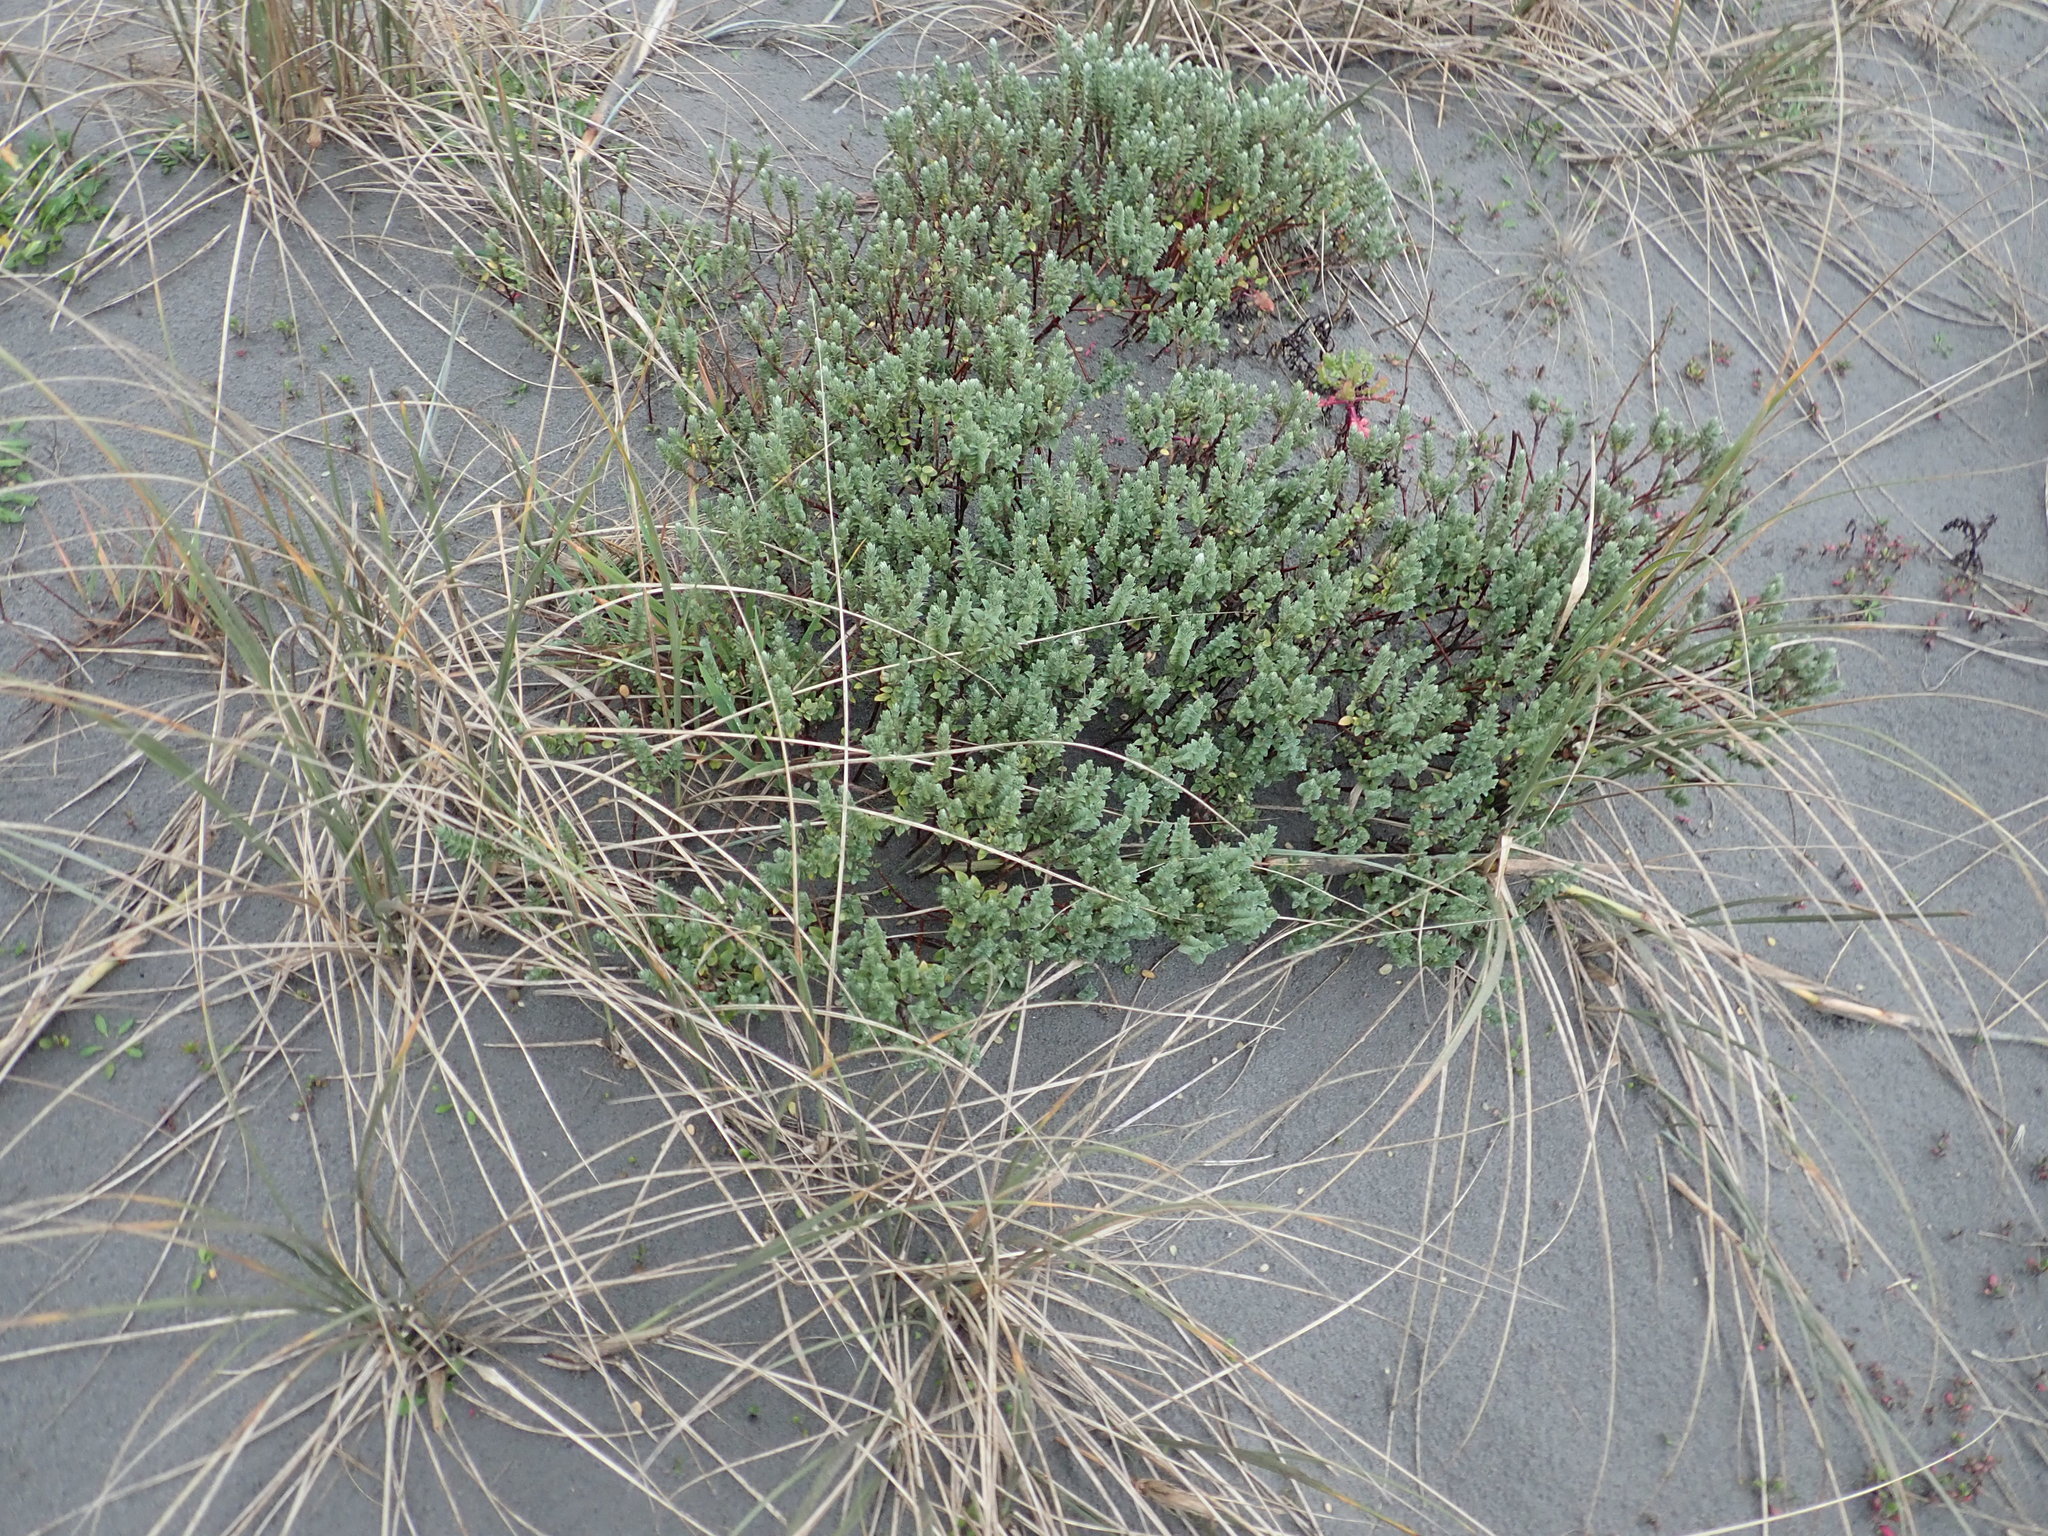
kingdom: Plantae
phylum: Tracheophyta
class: Magnoliopsida
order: Malvales
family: Thymelaeaceae
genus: Pimelea
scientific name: Pimelea villosa
